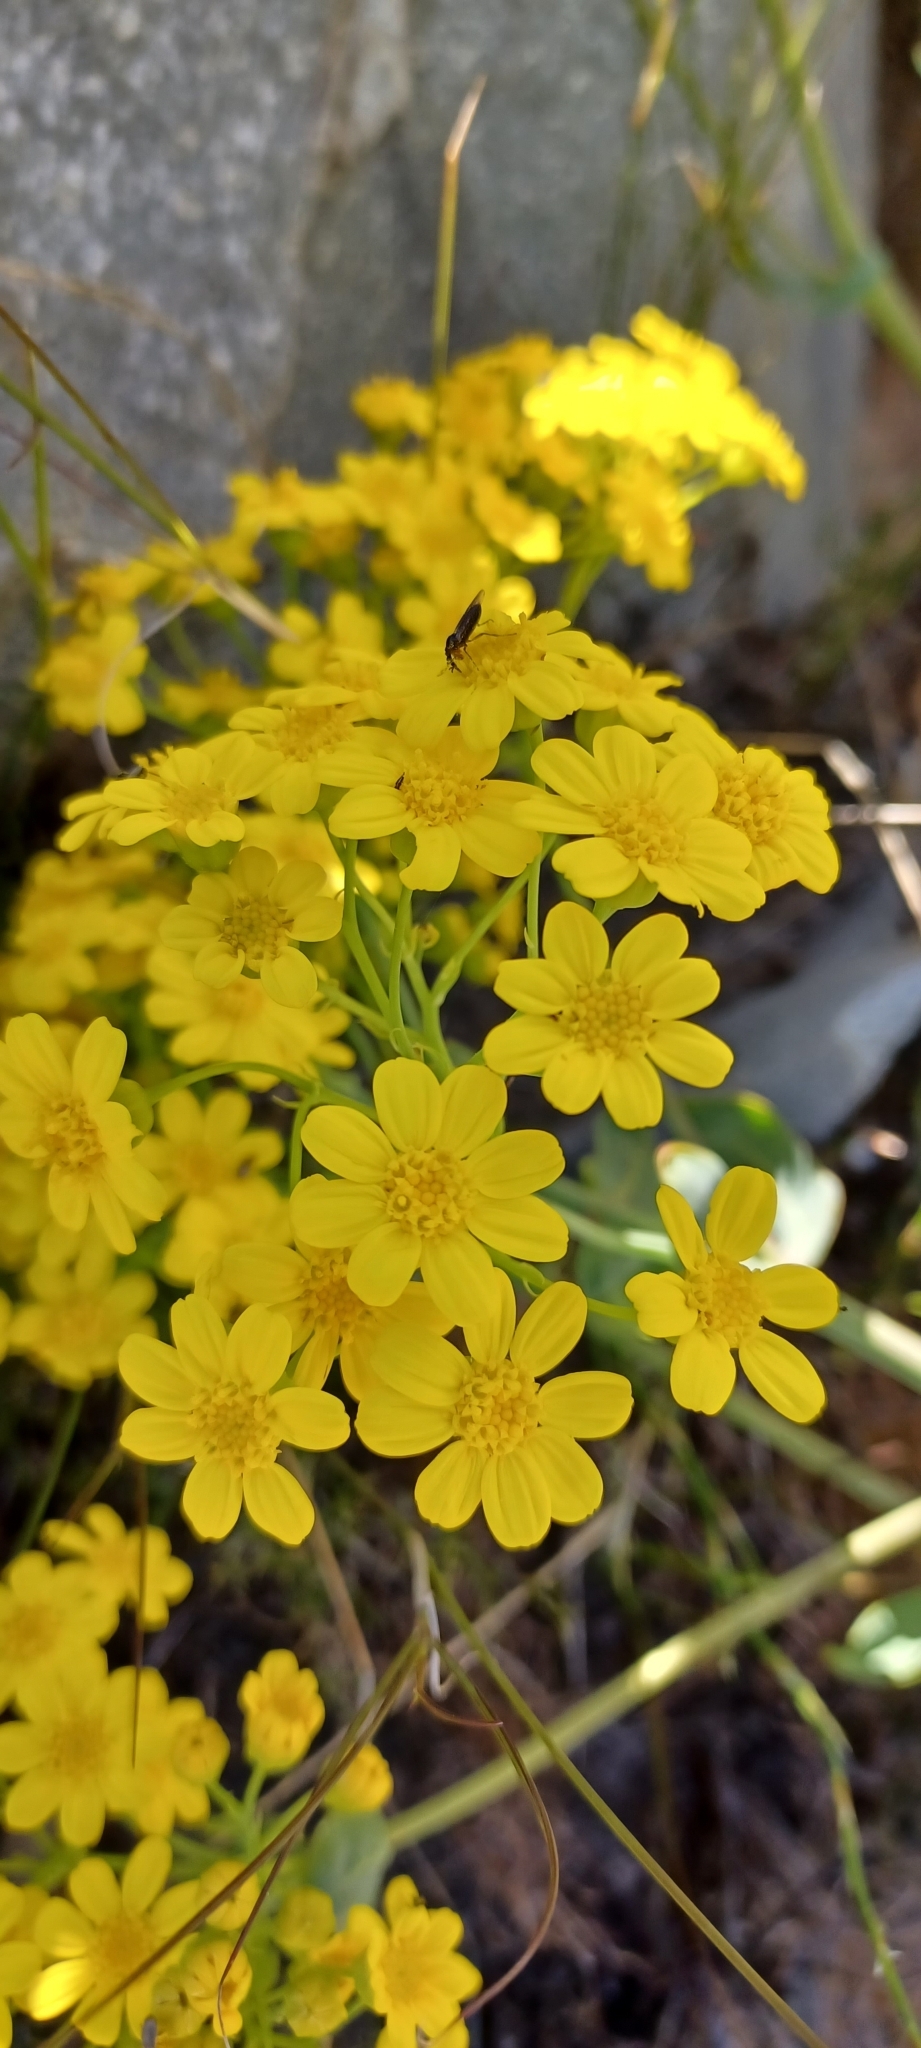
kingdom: Plantae
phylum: Tracheophyta
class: Magnoliopsida
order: Asterales
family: Asteraceae
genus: Othonna
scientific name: Othonna parviflora
